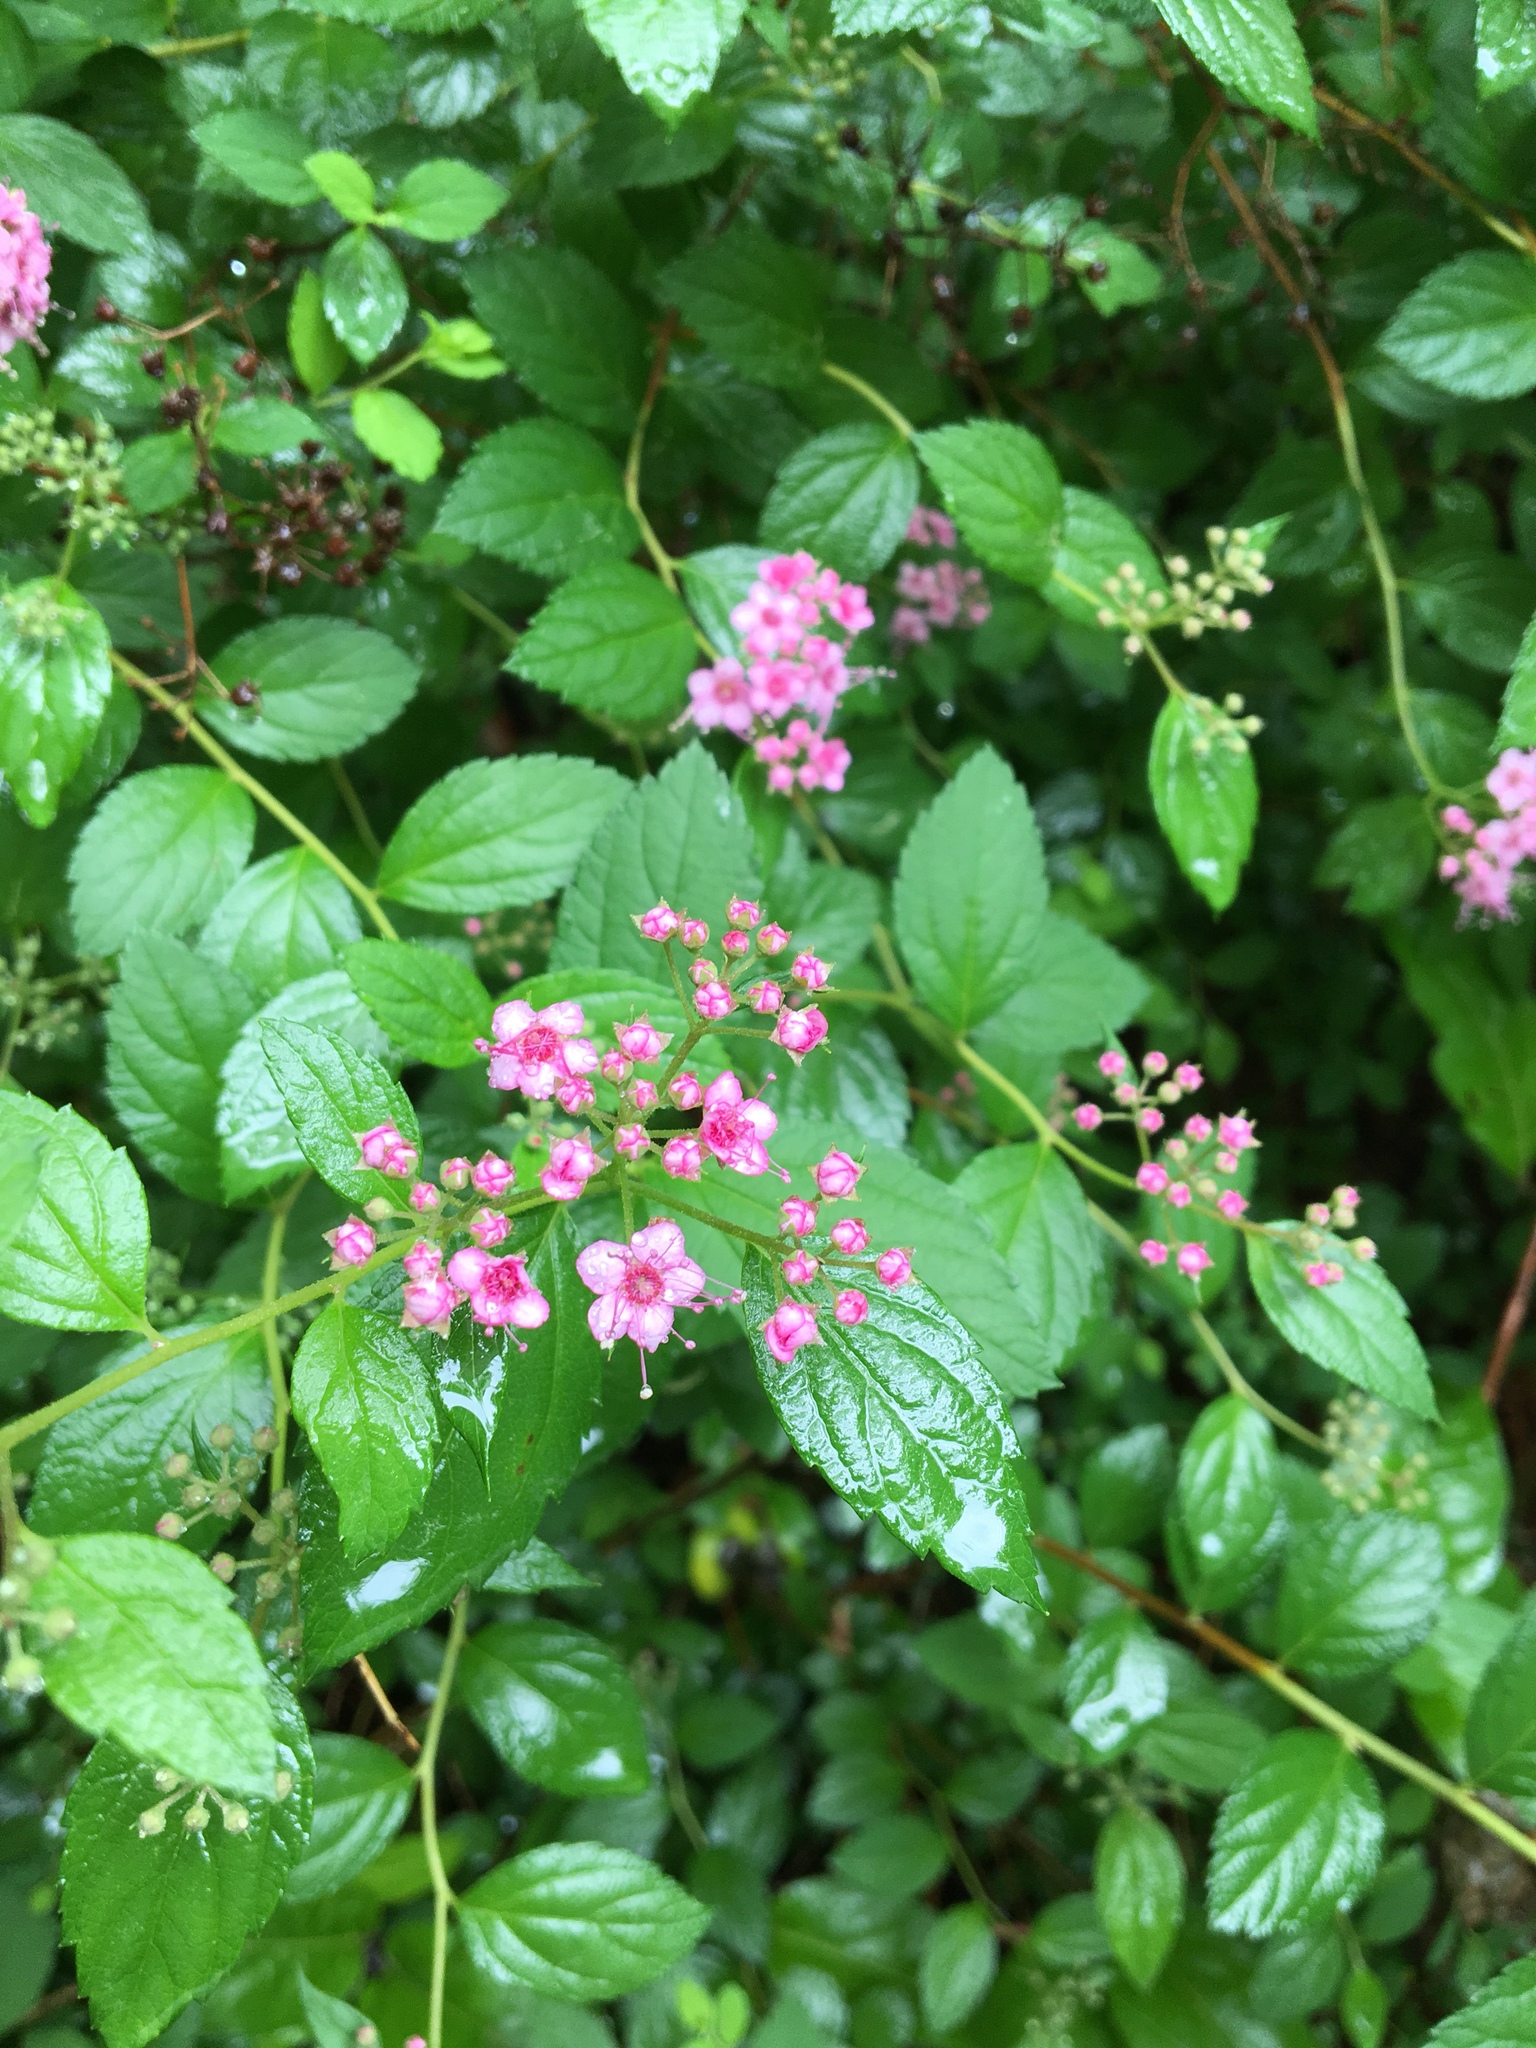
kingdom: Plantae
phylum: Tracheophyta
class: Magnoliopsida
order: Rosales
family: Rosaceae
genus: Spiraea
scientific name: Spiraea japonica
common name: Japanese spiraea
